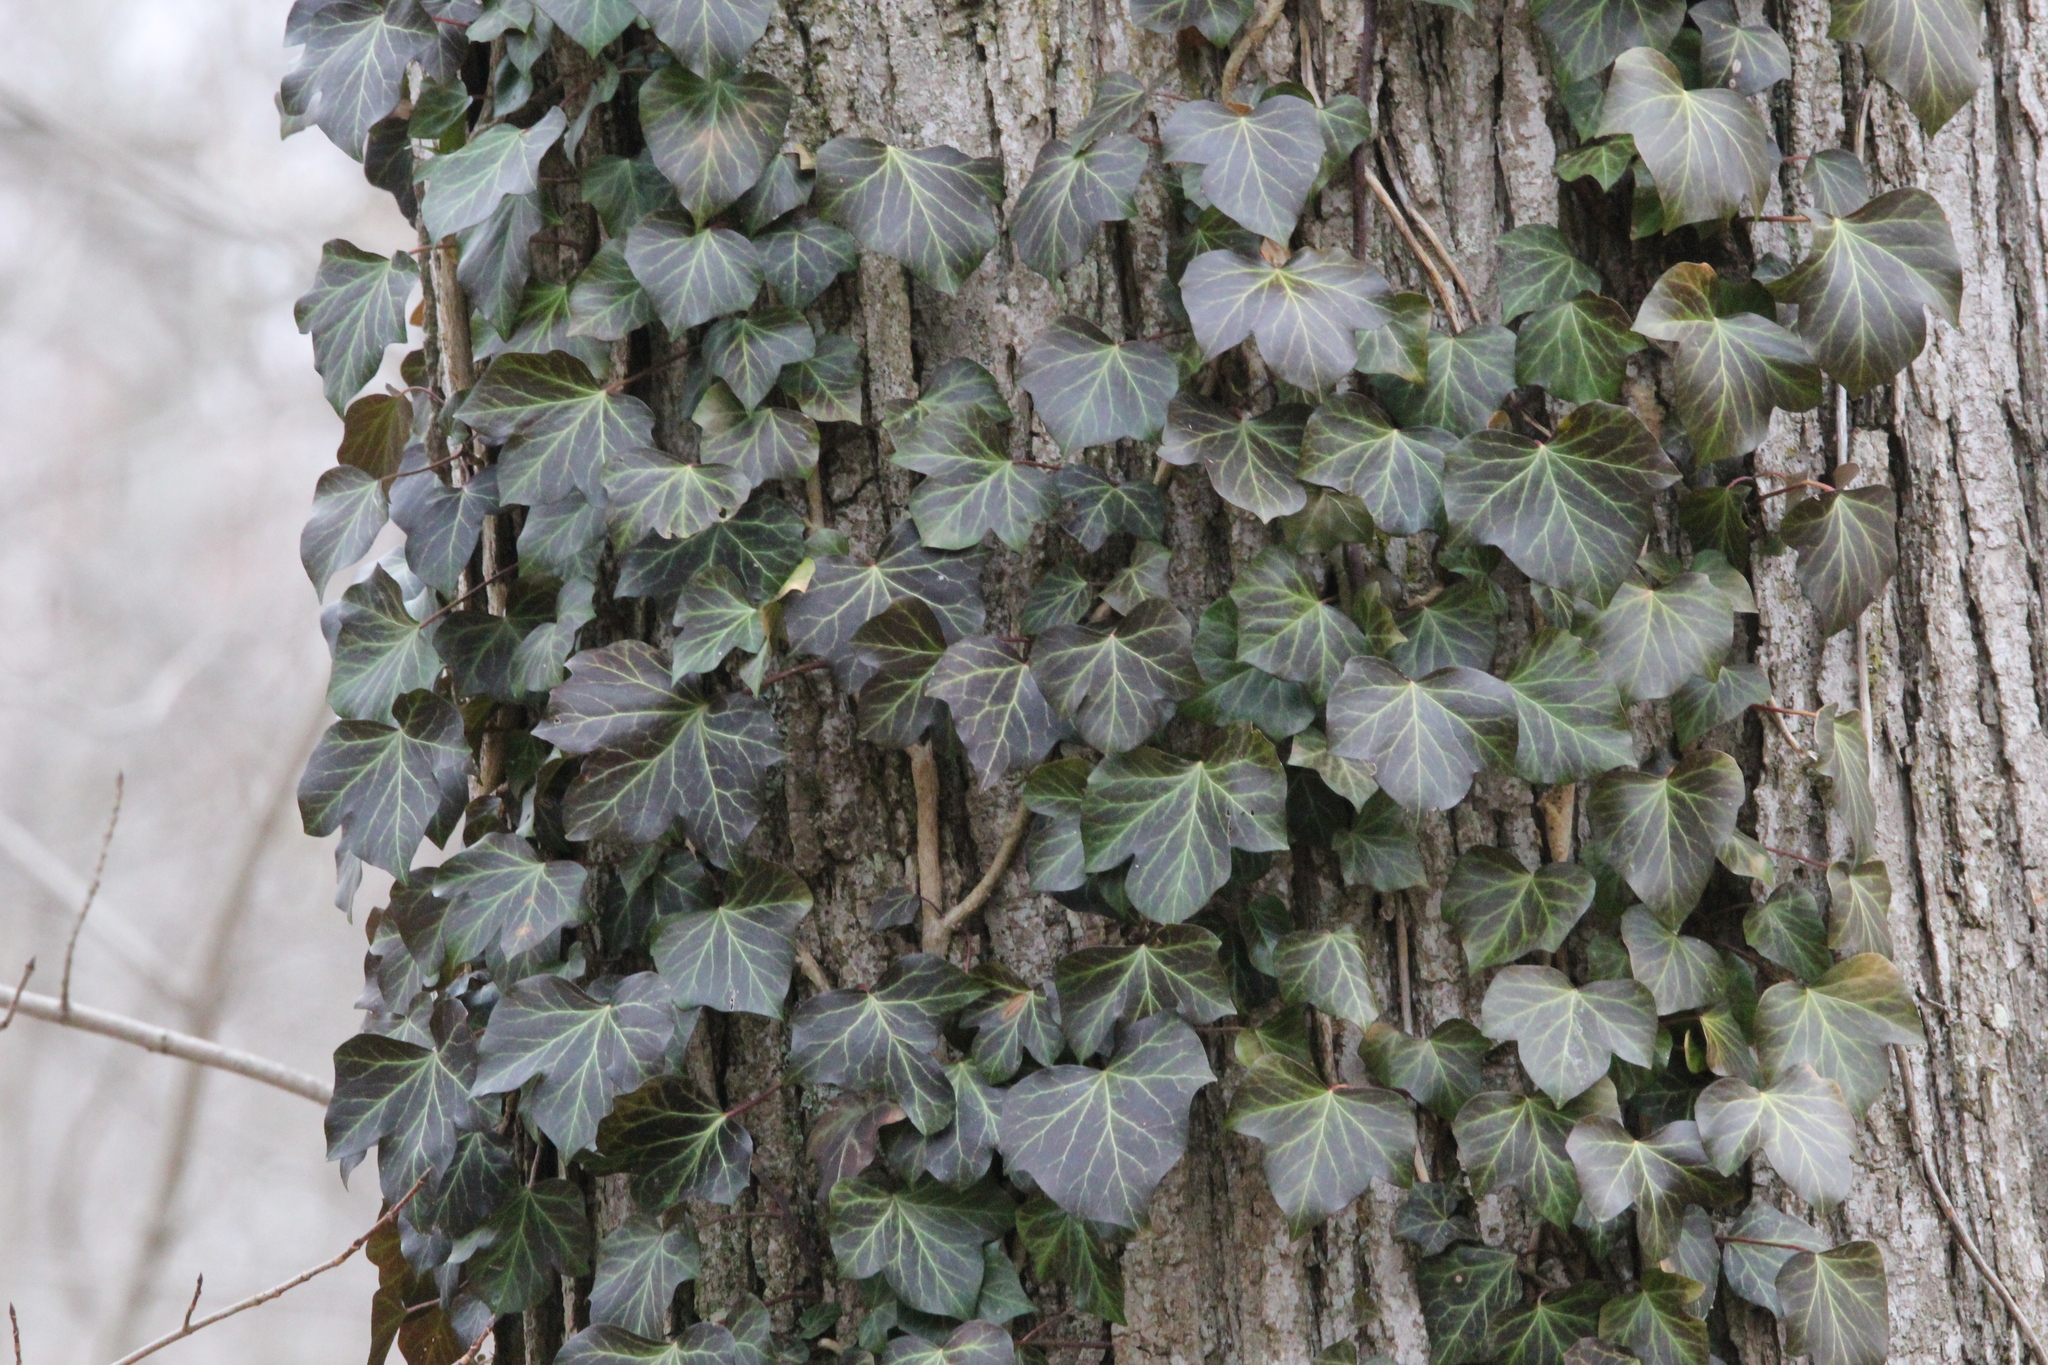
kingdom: Plantae
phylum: Tracheophyta
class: Magnoliopsida
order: Apiales
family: Araliaceae
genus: Hedera
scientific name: Hedera helix
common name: Ivy
